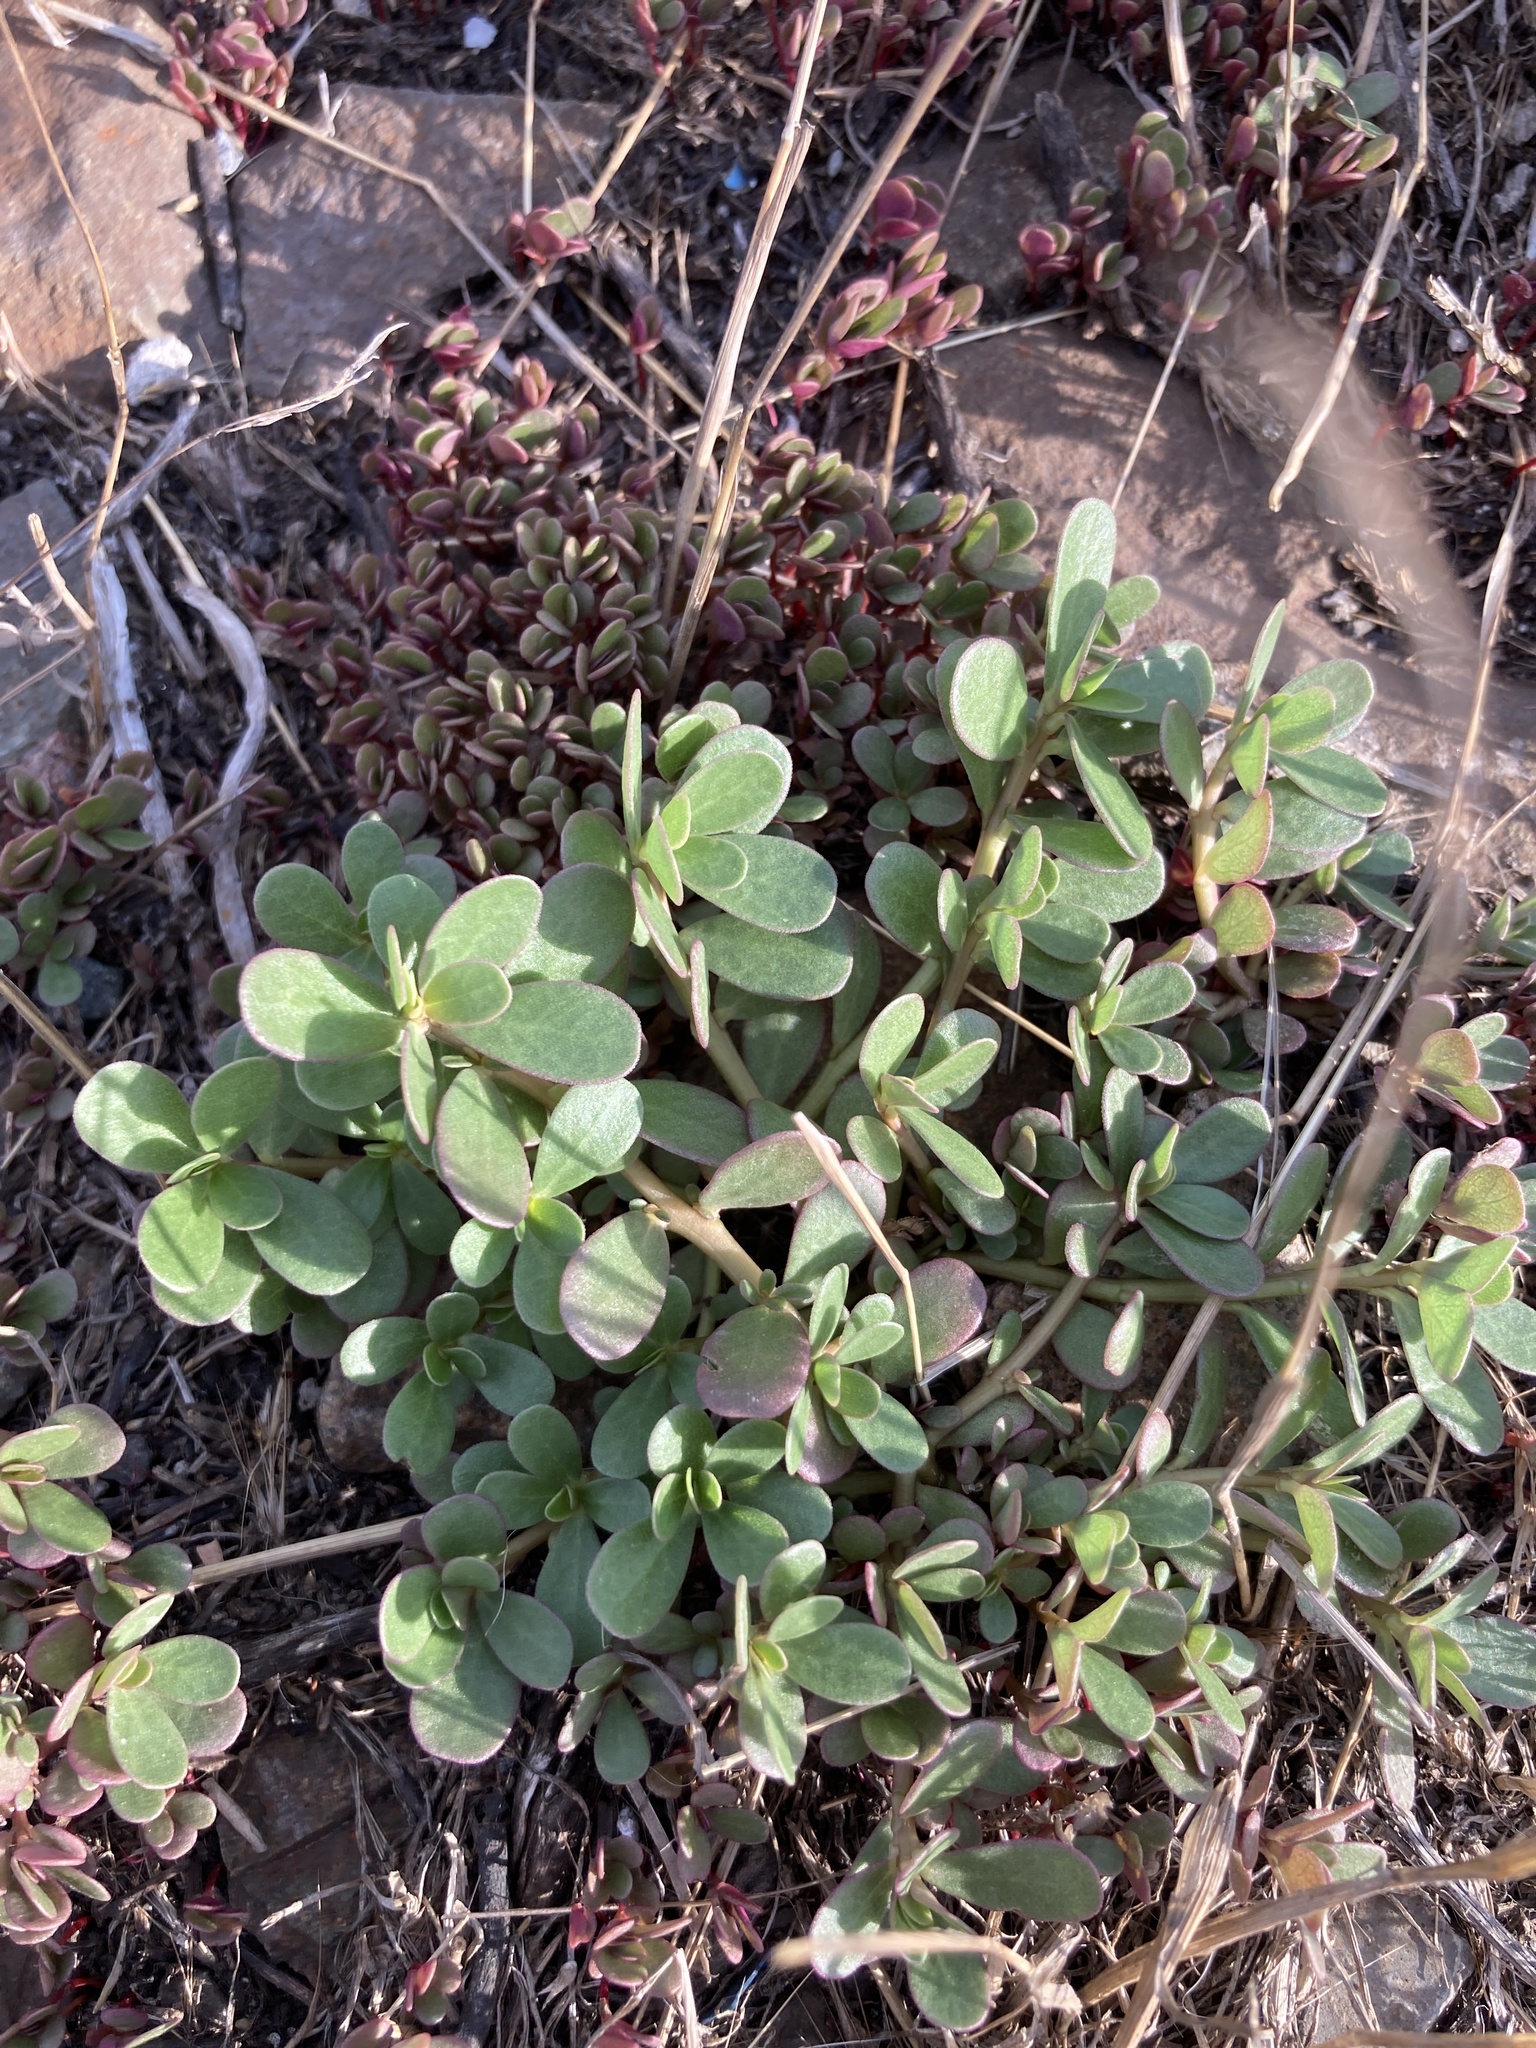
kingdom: Plantae
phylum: Tracheophyta
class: Magnoliopsida
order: Caryophyllales
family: Portulacaceae
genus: Portulaca
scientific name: Portulaca oleracea
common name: Common purslane
